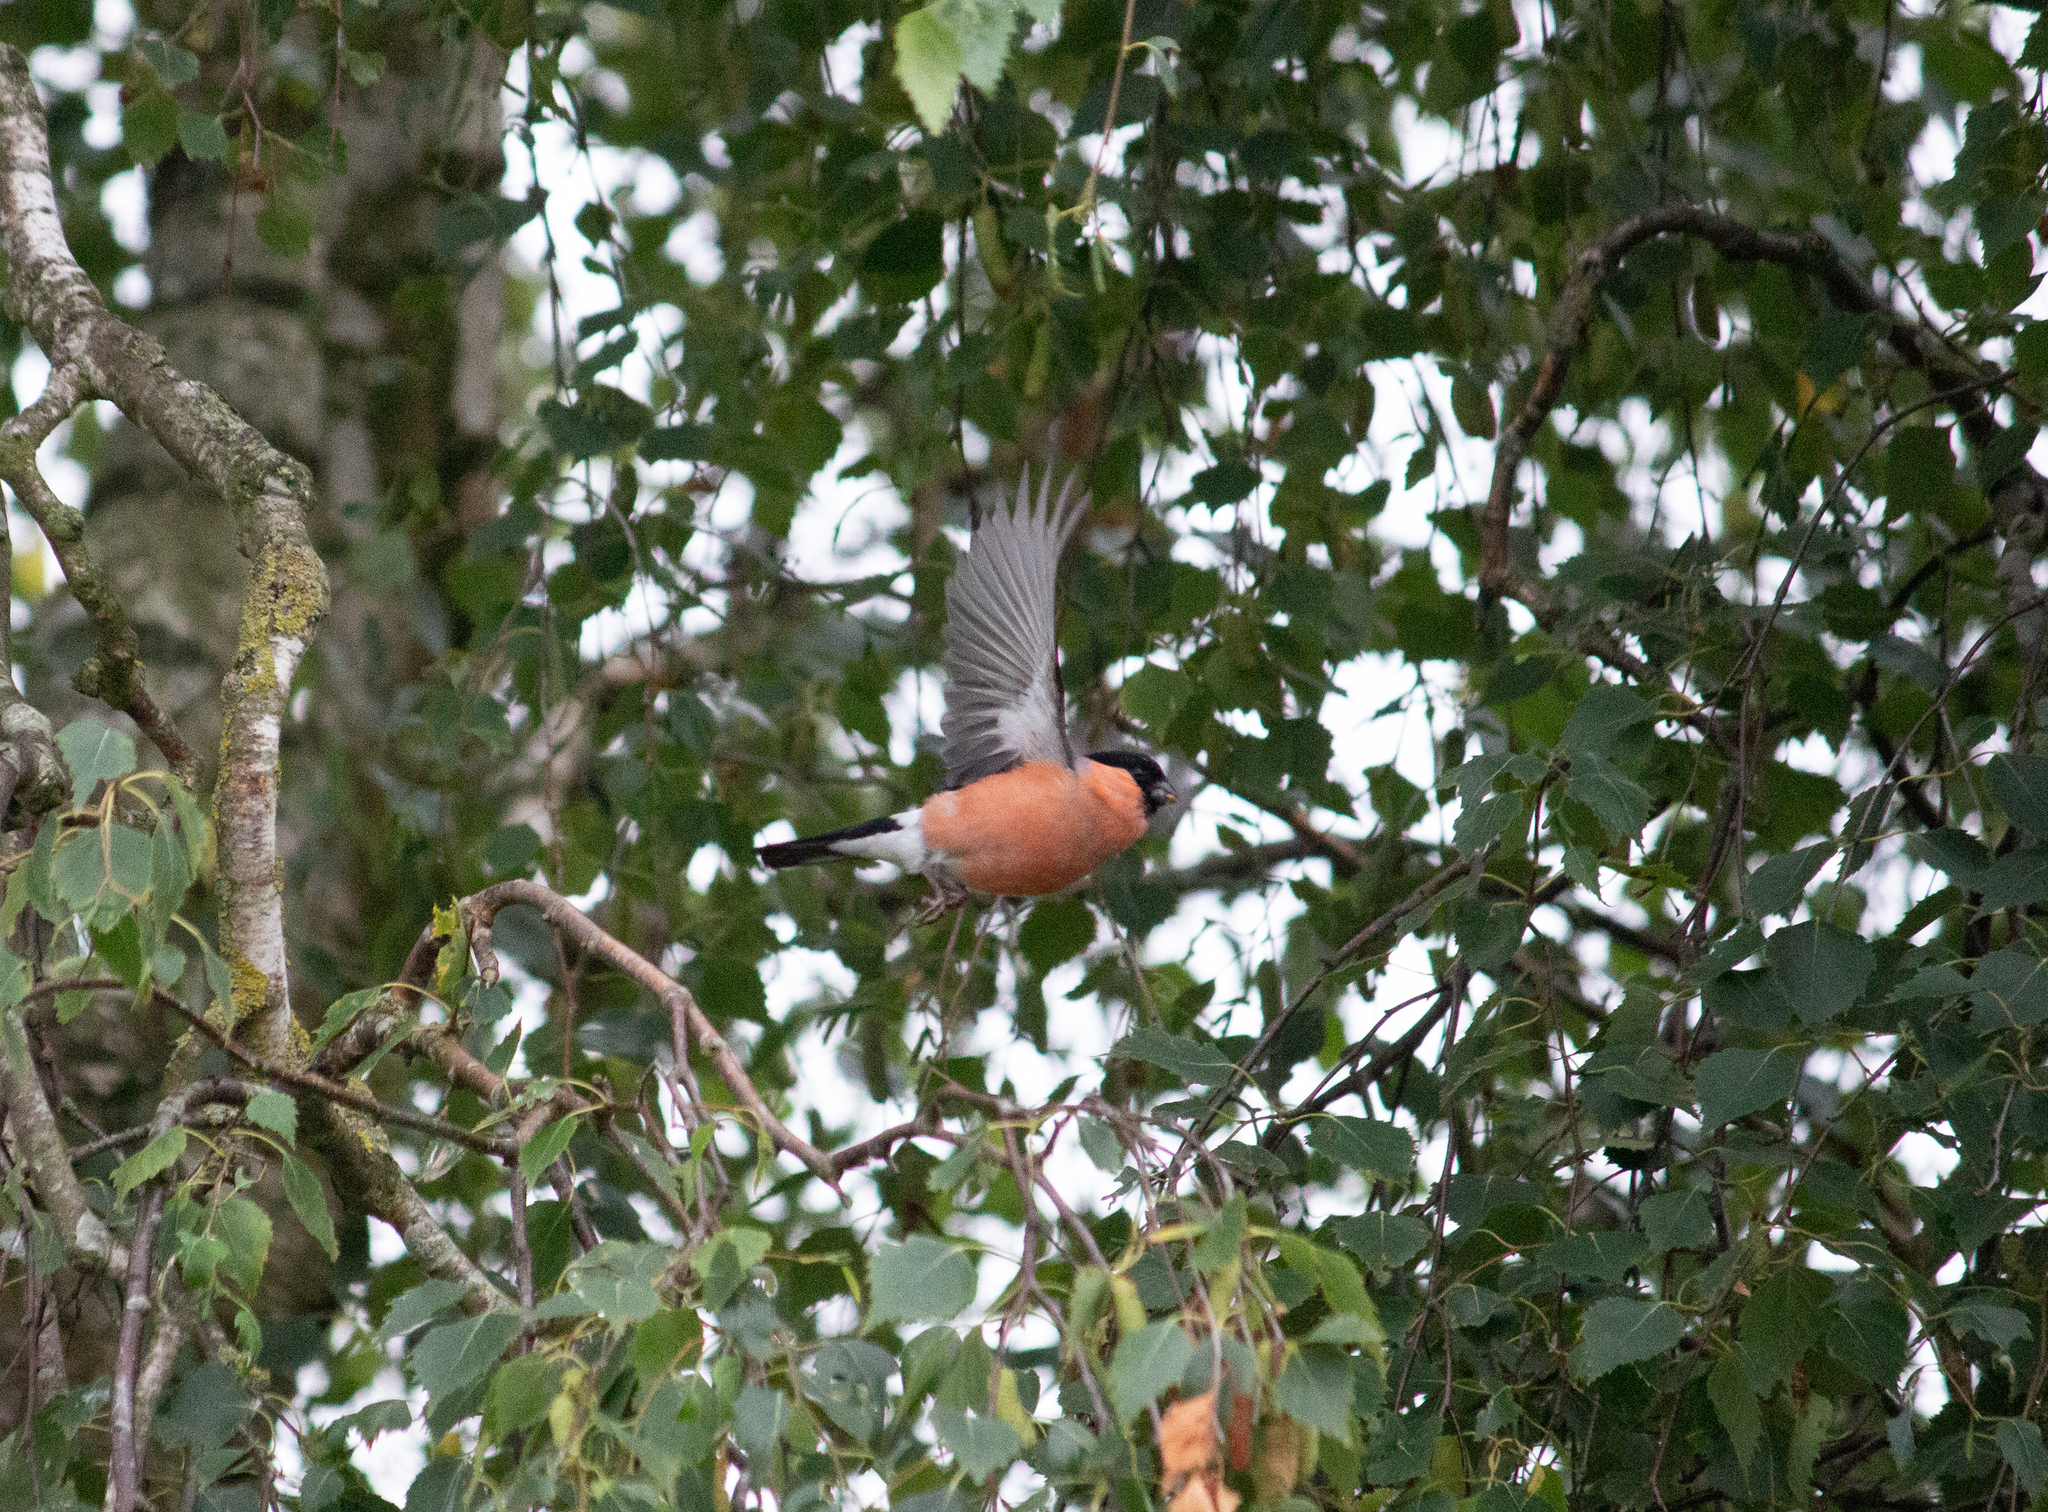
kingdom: Animalia
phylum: Chordata
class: Aves
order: Passeriformes
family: Fringillidae
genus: Pyrrhula
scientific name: Pyrrhula pyrrhula
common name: Eurasian bullfinch
